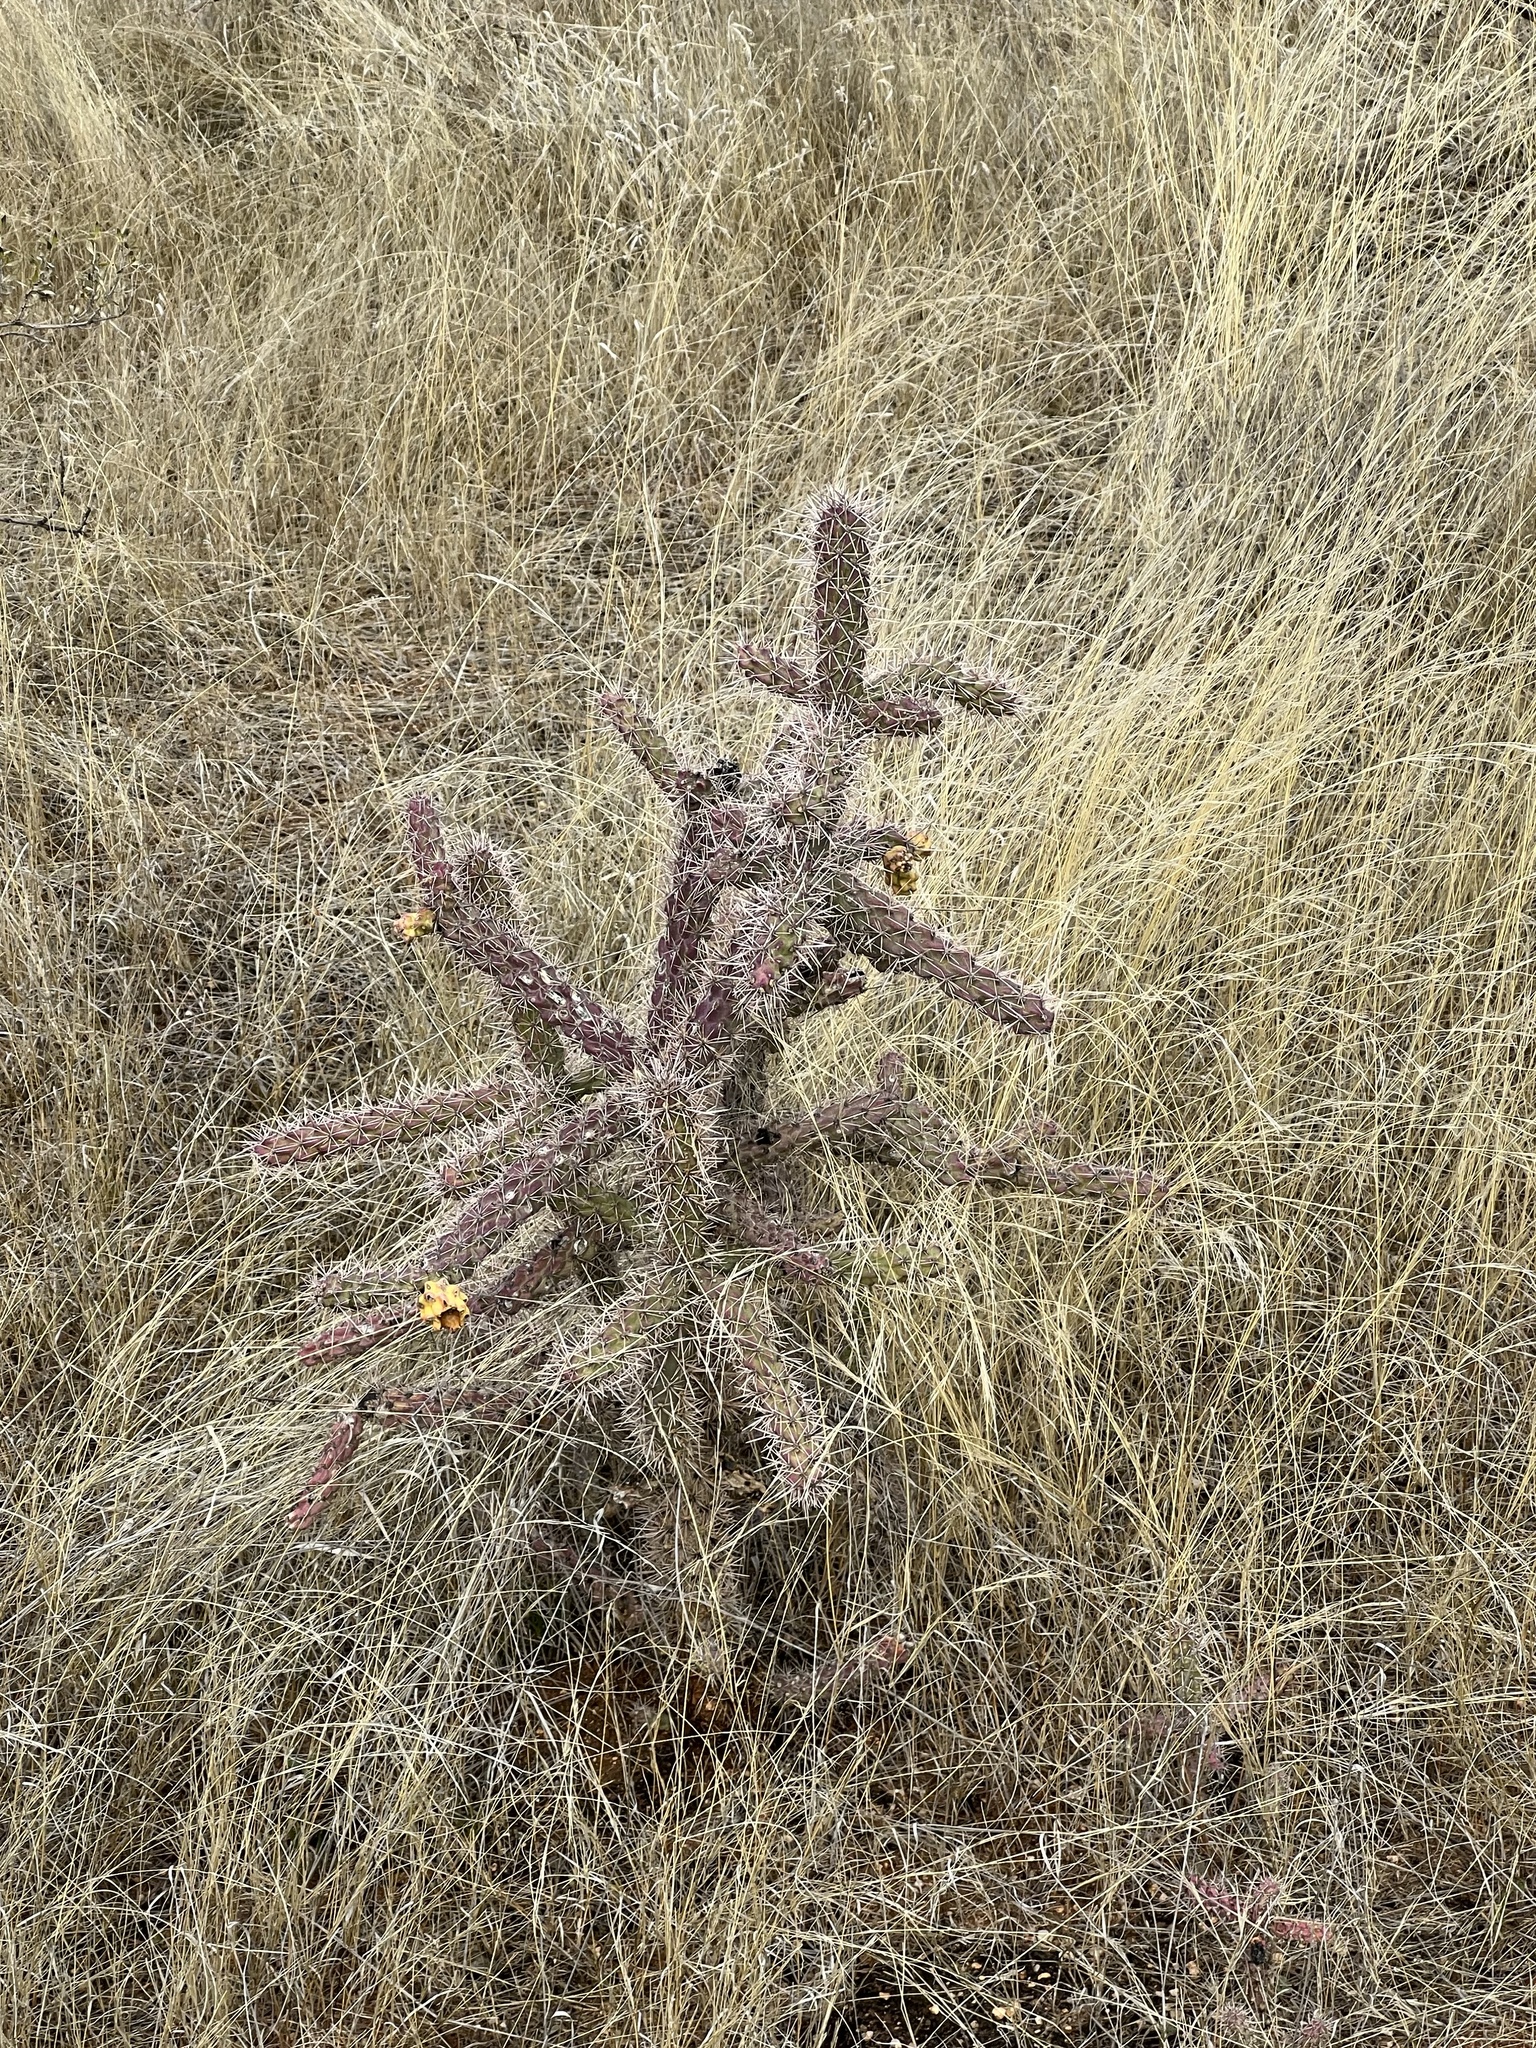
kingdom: Plantae
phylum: Tracheophyta
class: Magnoliopsida
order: Caryophyllales
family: Cactaceae
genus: Cylindropuntia
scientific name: Cylindropuntia imbricata
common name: Candelabrum cactus
